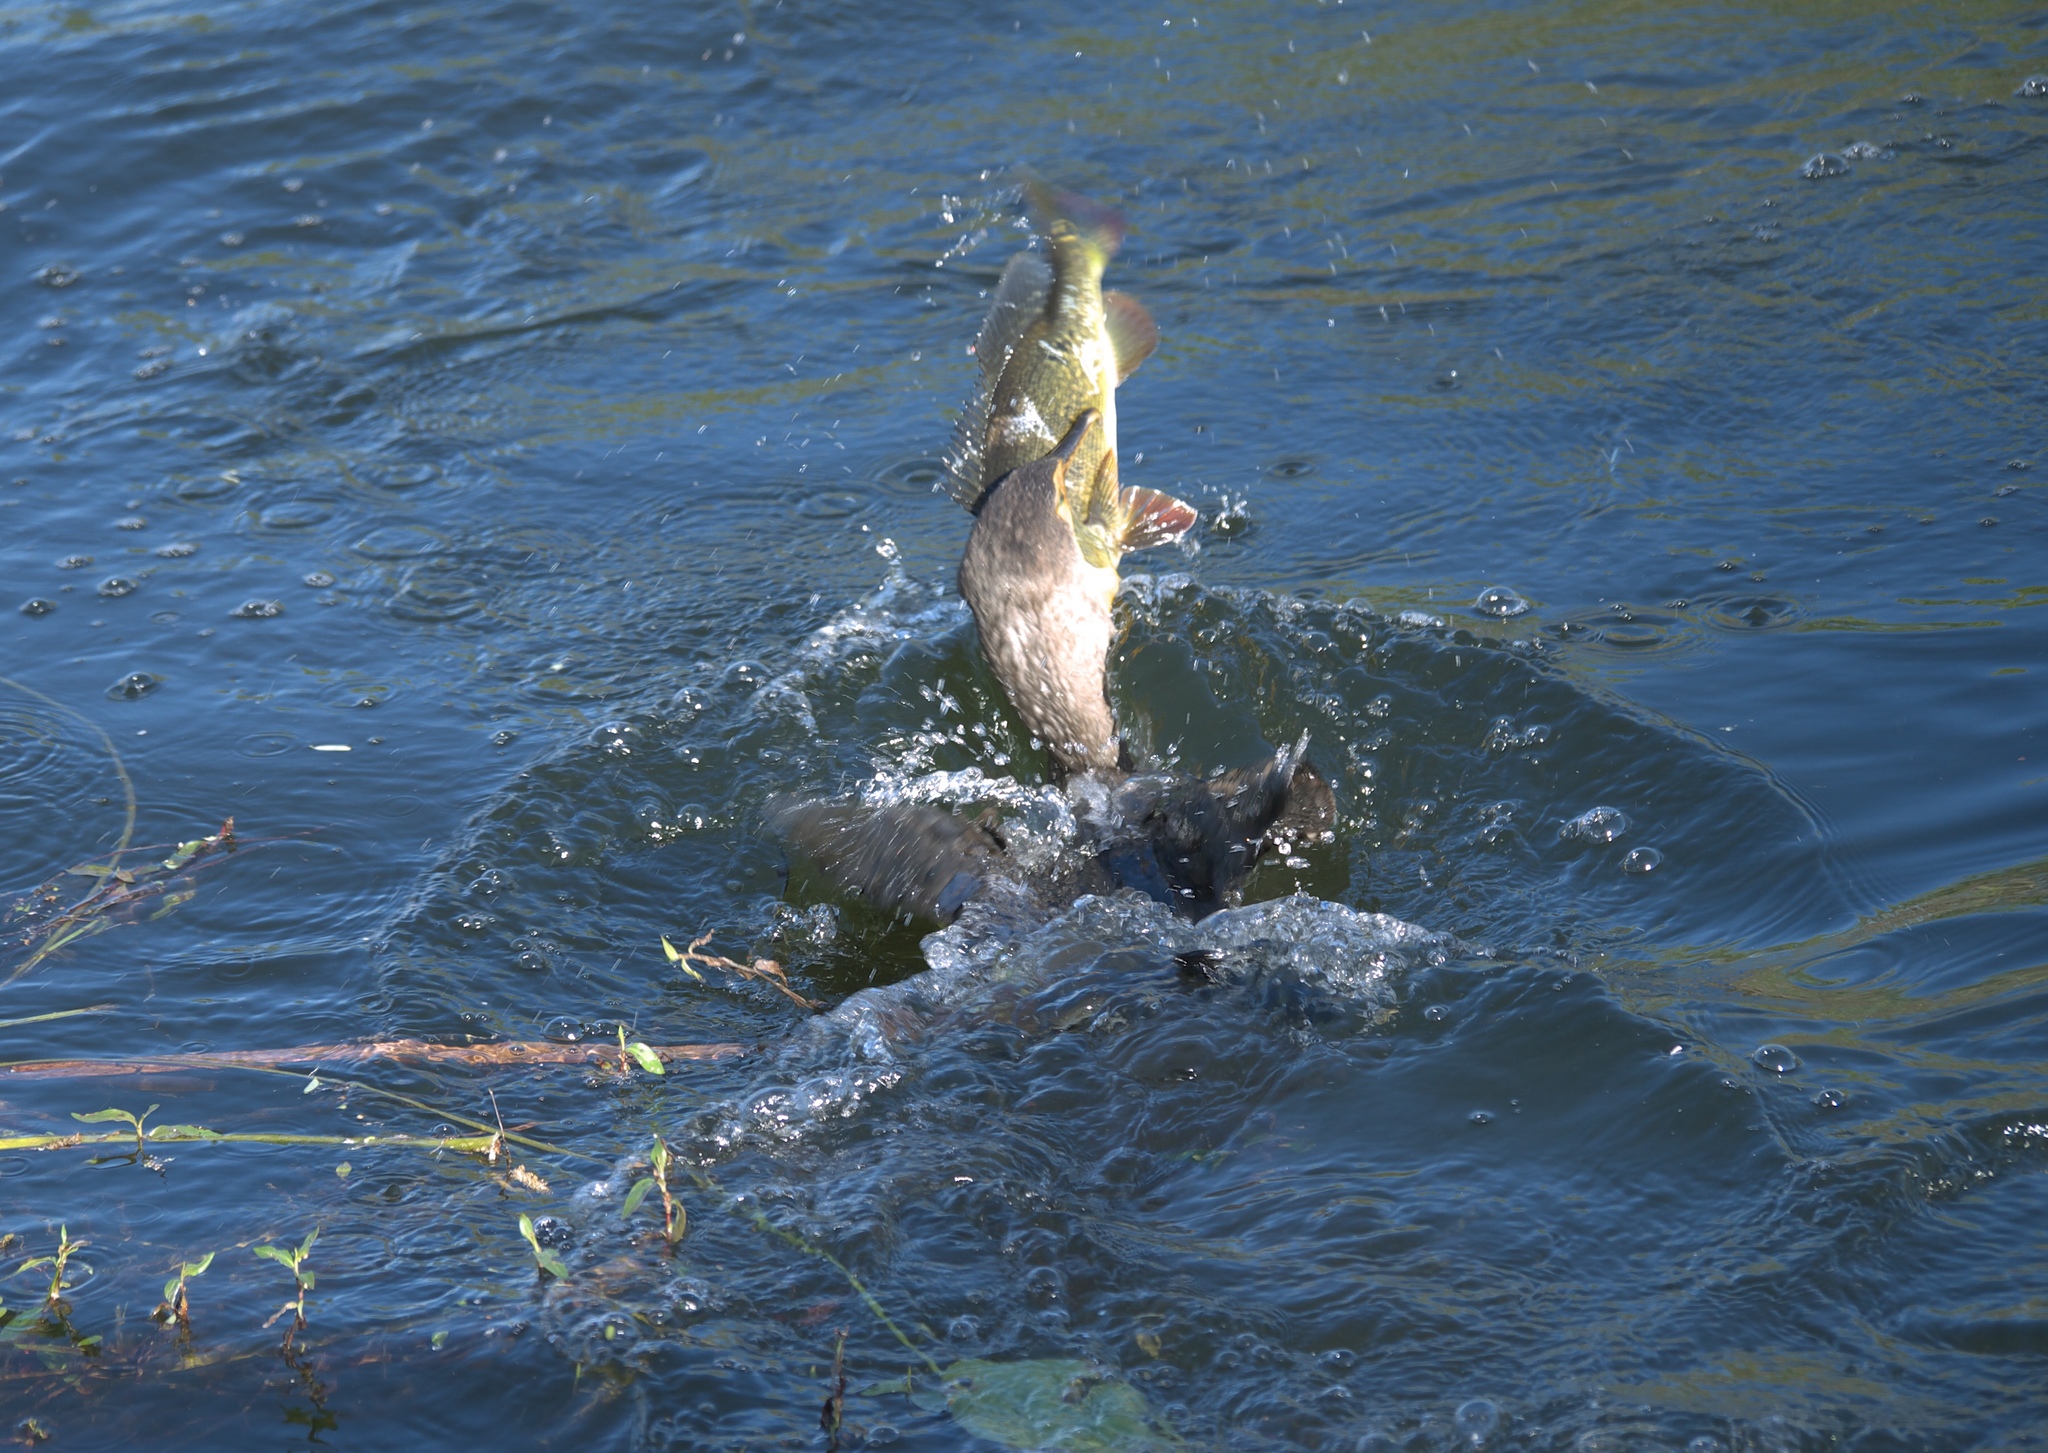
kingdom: Animalia
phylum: Chordata
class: Aves
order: Suliformes
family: Phalacrocoracidae
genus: Phalacrocorax
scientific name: Phalacrocorax auritus
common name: Double-crested cormorant
